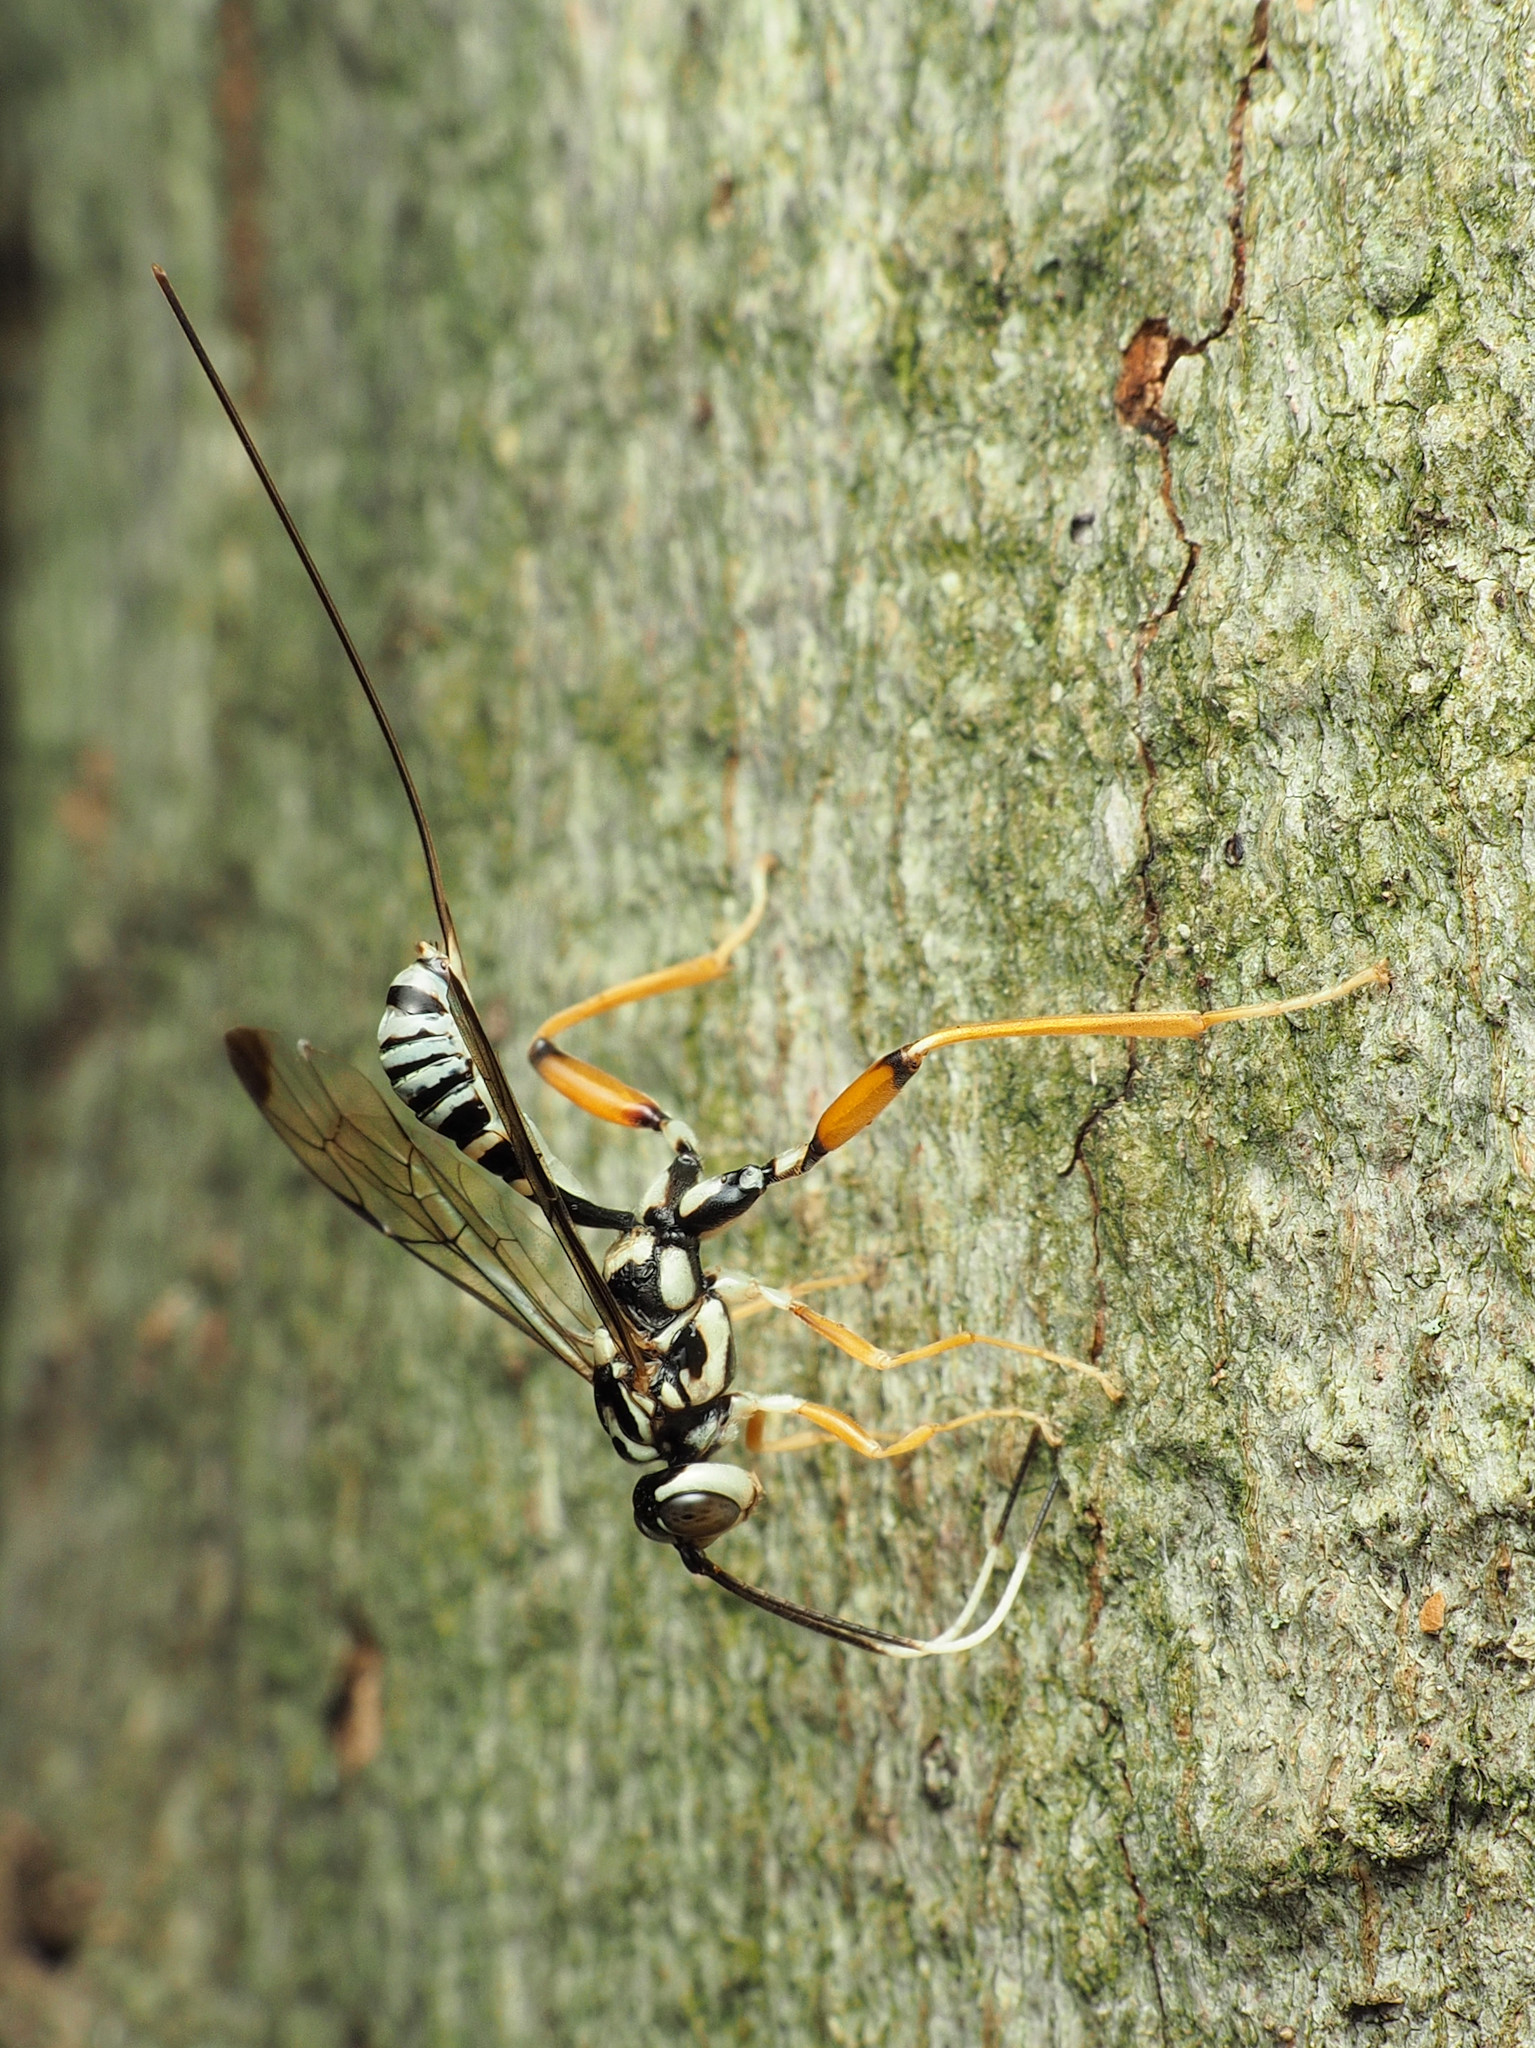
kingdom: Animalia
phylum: Arthropoda
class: Insecta
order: Hymenoptera
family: Ichneumonidae
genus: Arotes
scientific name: Arotes decorus
